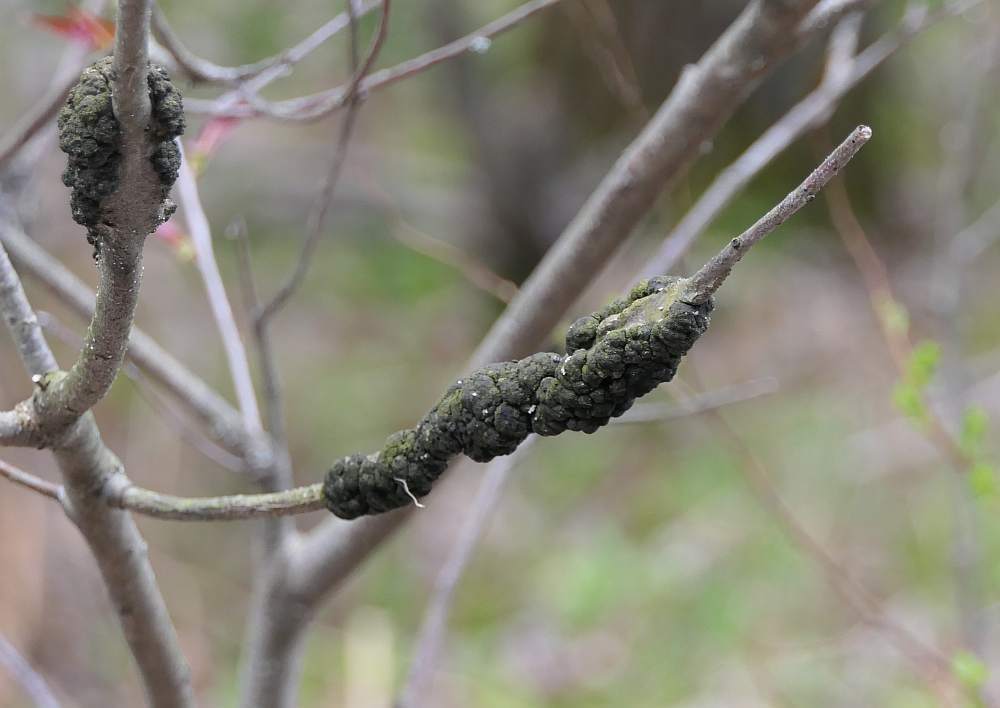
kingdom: Fungi
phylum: Ascomycota
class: Dothideomycetes
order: Venturiales
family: Venturiaceae
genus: Apiosporina
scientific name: Apiosporina morbosa
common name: Black knot
